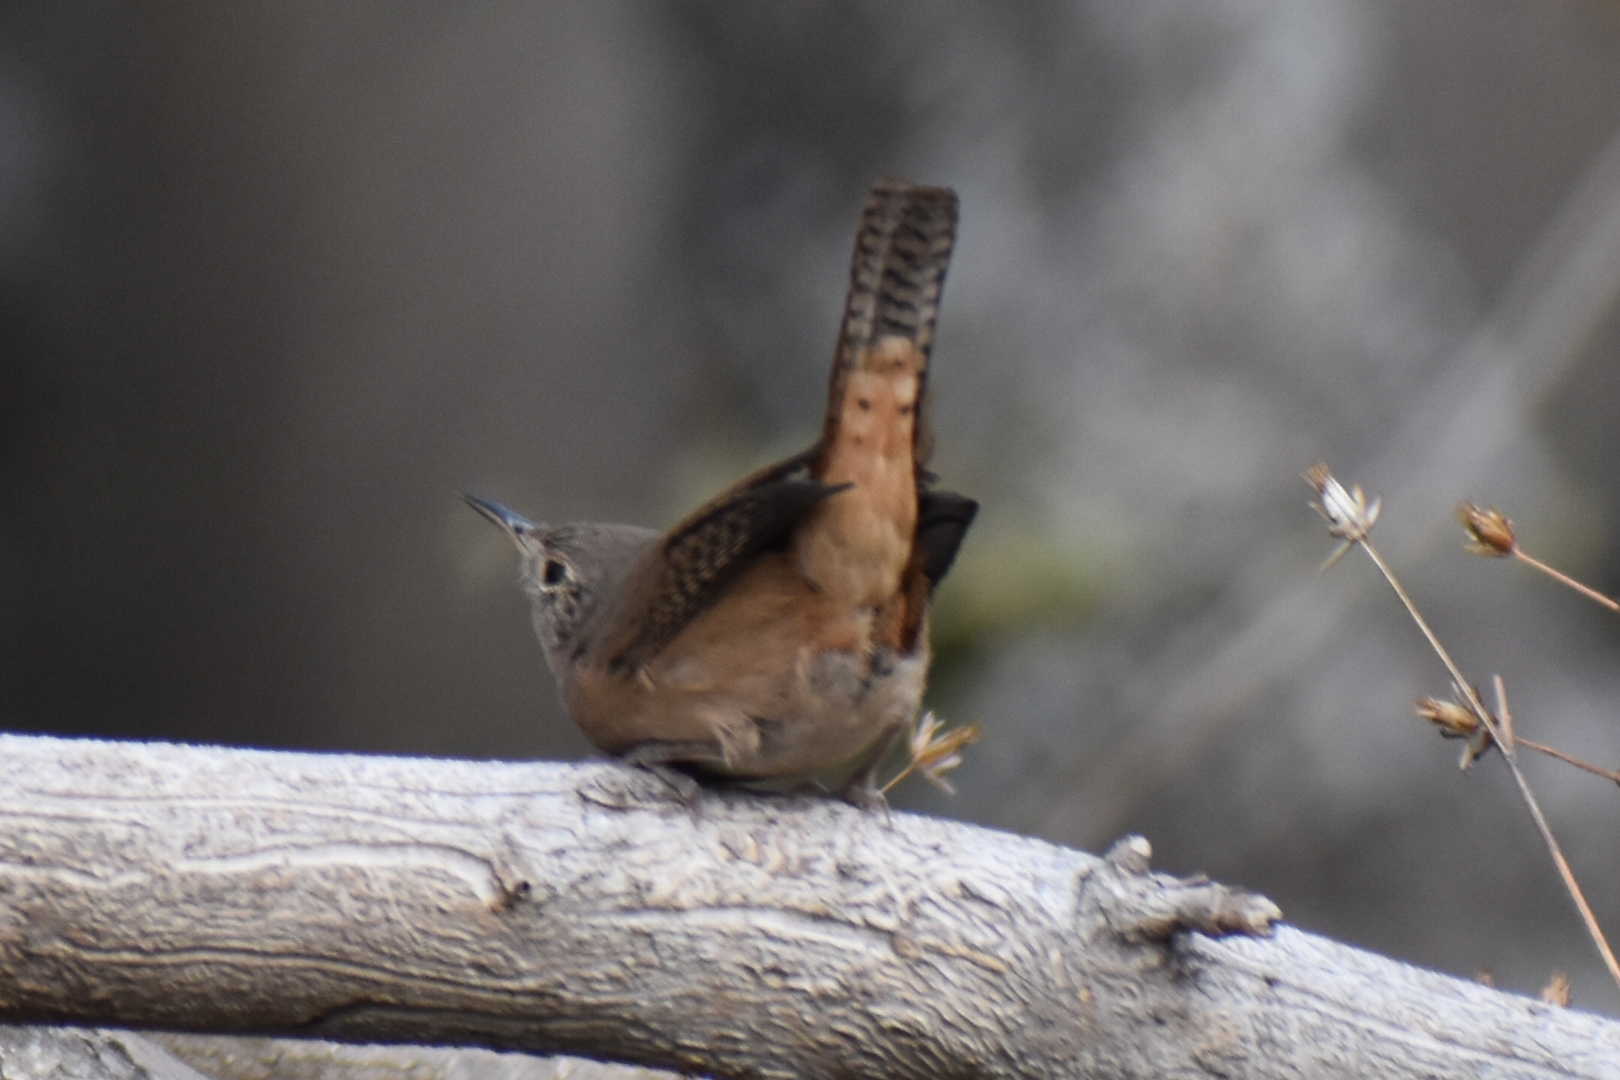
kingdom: Animalia
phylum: Chordata
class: Aves
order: Passeriformes
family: Troglodytidae
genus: Troglodytes
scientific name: Troglodytes aedon
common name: House wren
